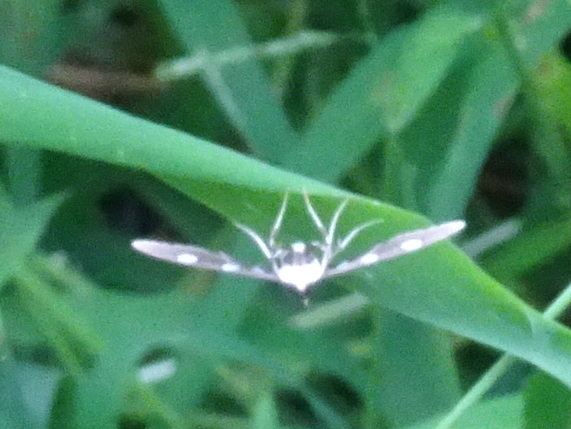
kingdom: Animalia
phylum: Arthropoda
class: Insecta
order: Lepidoptera
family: Crambidae
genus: Desmia
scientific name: Desmia
